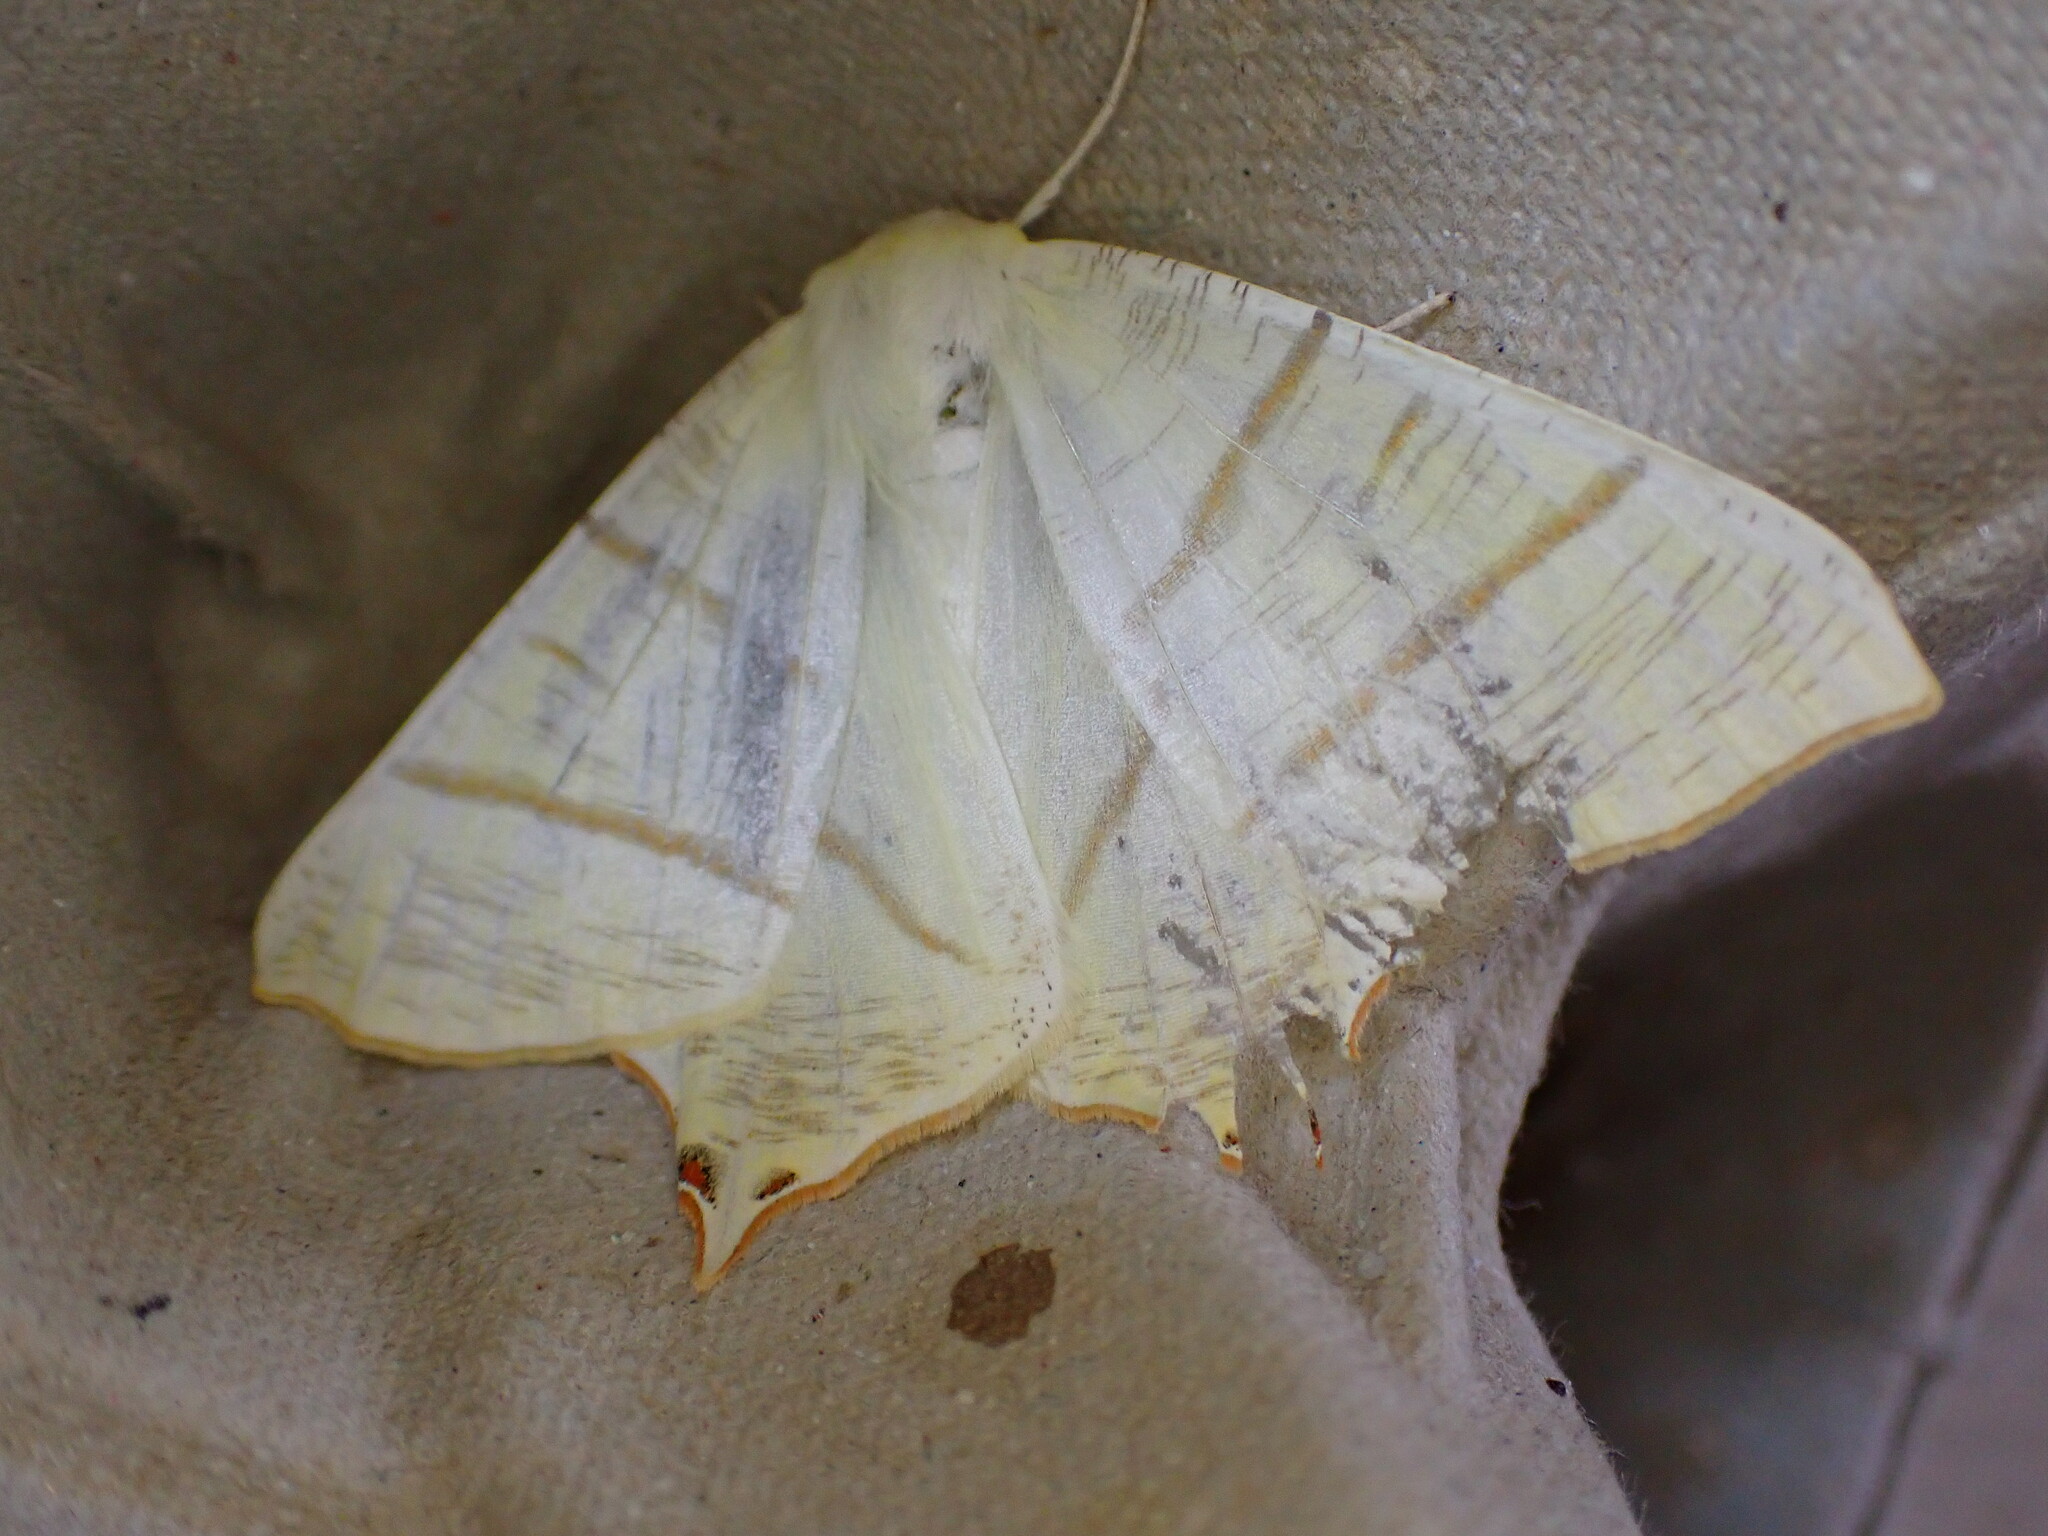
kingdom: Animalia
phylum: Arthropoda
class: Insecta
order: Lepidoptera
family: Geometridae
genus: Ourapteryx
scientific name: Ourapteryx sambucaria
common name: Swallow-tailed moth
